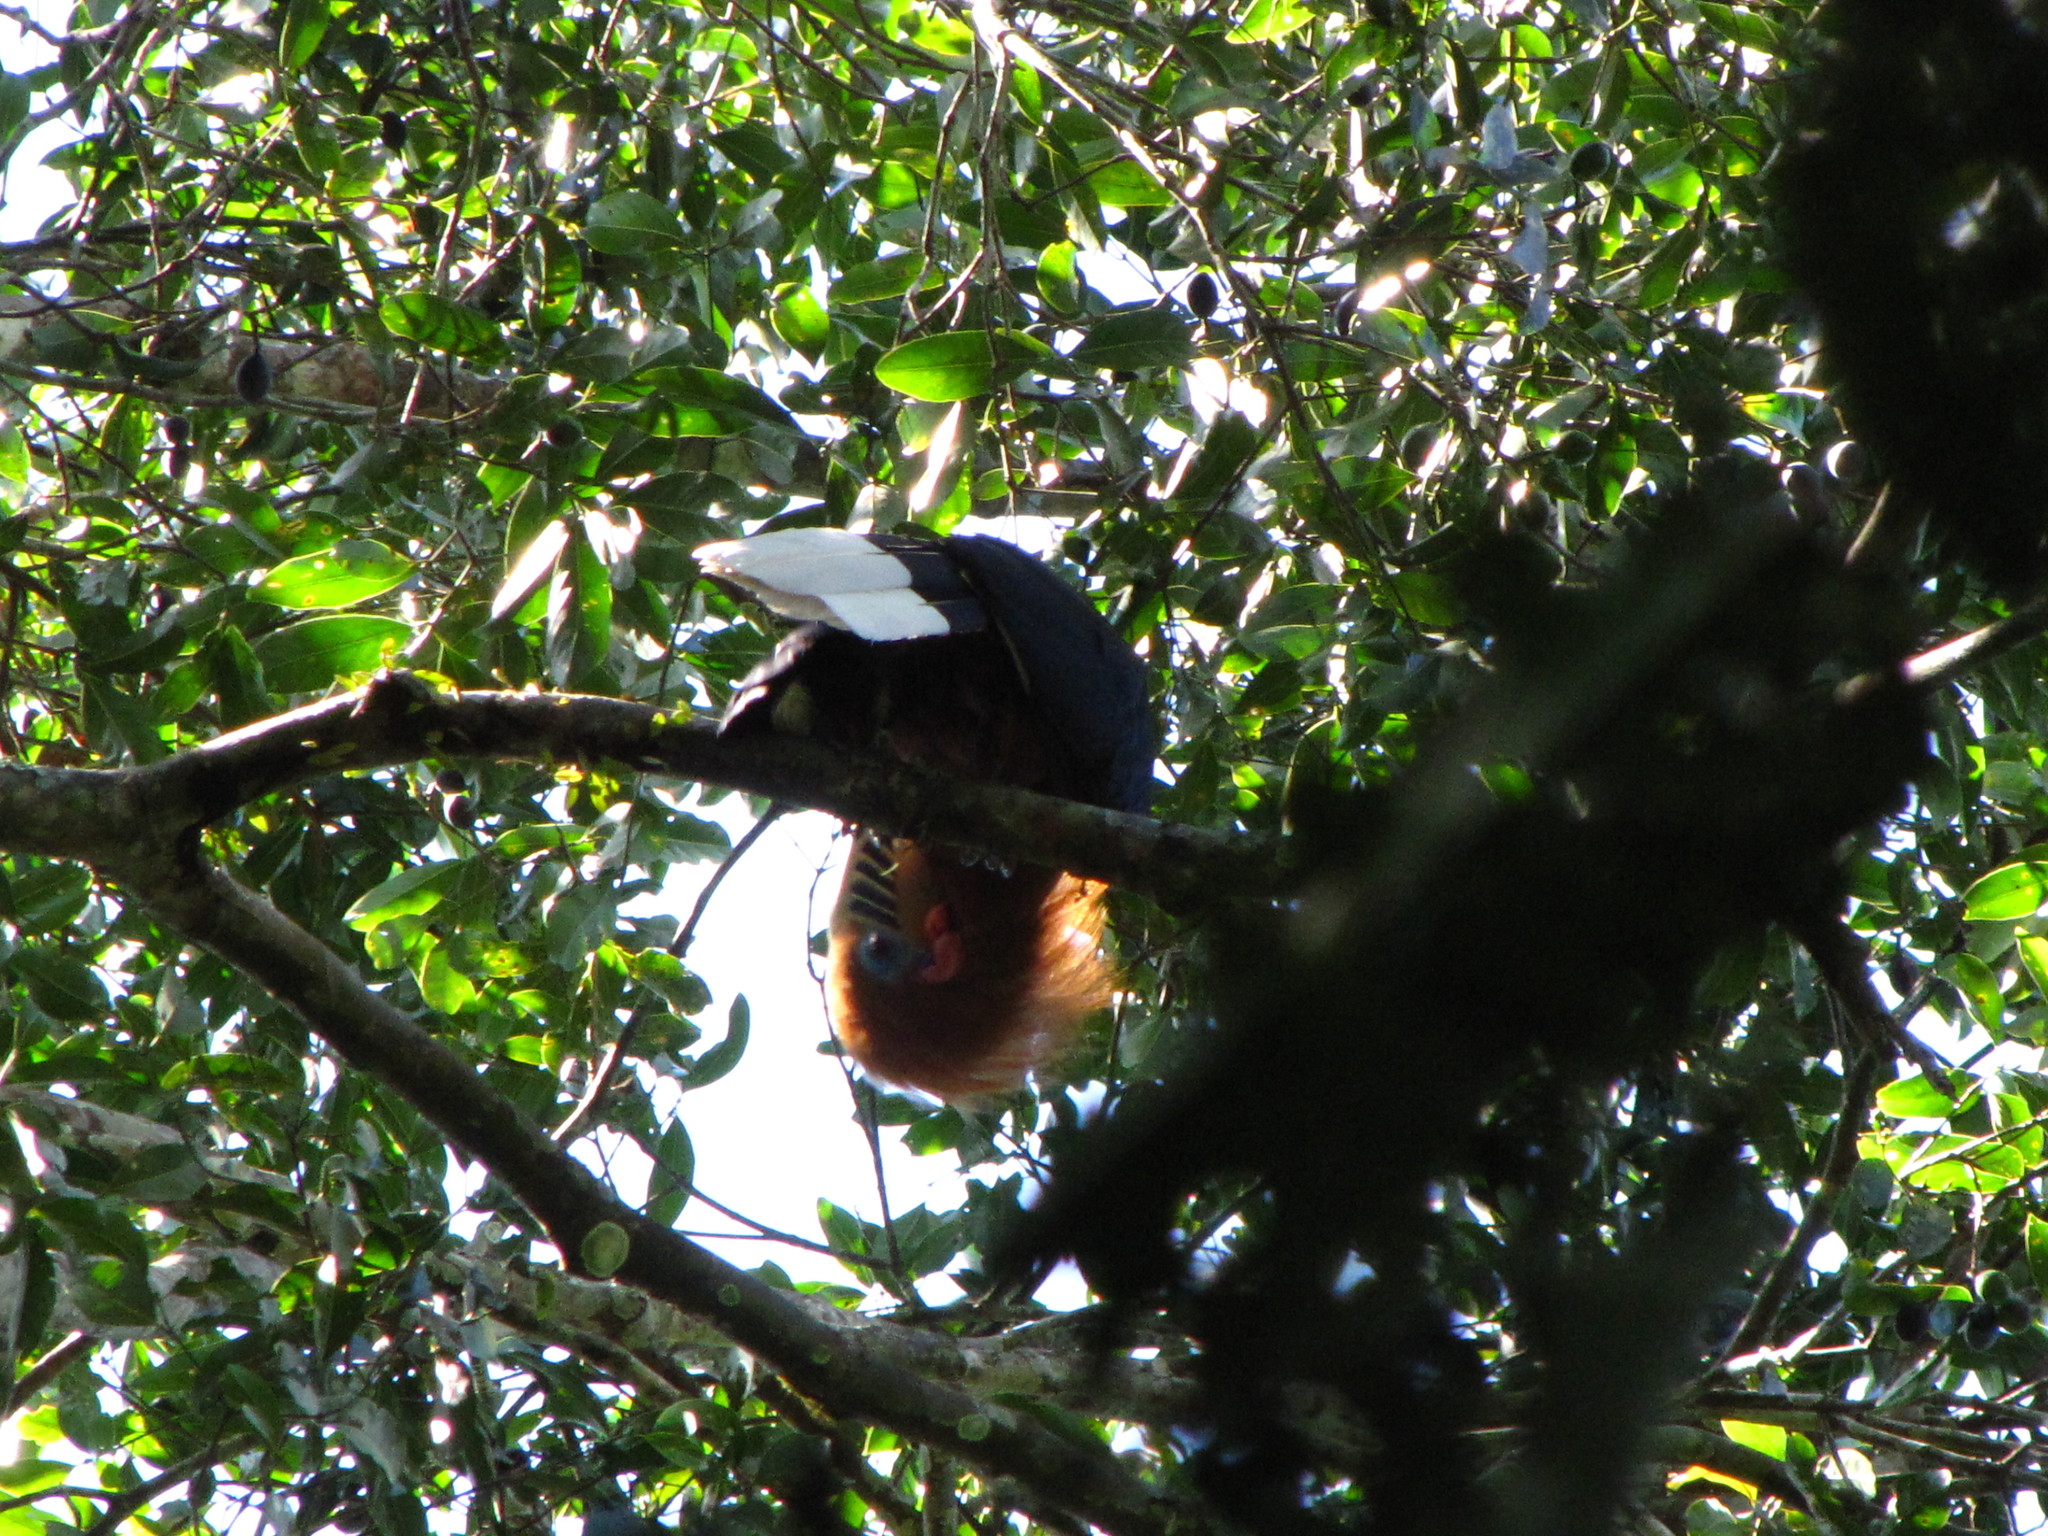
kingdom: Animalia
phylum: Chordata
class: Aves
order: Bucerotiformes
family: Bucerotidae
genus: Aceros
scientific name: Aceros nipalensis
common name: Rufous-necked hornbill
